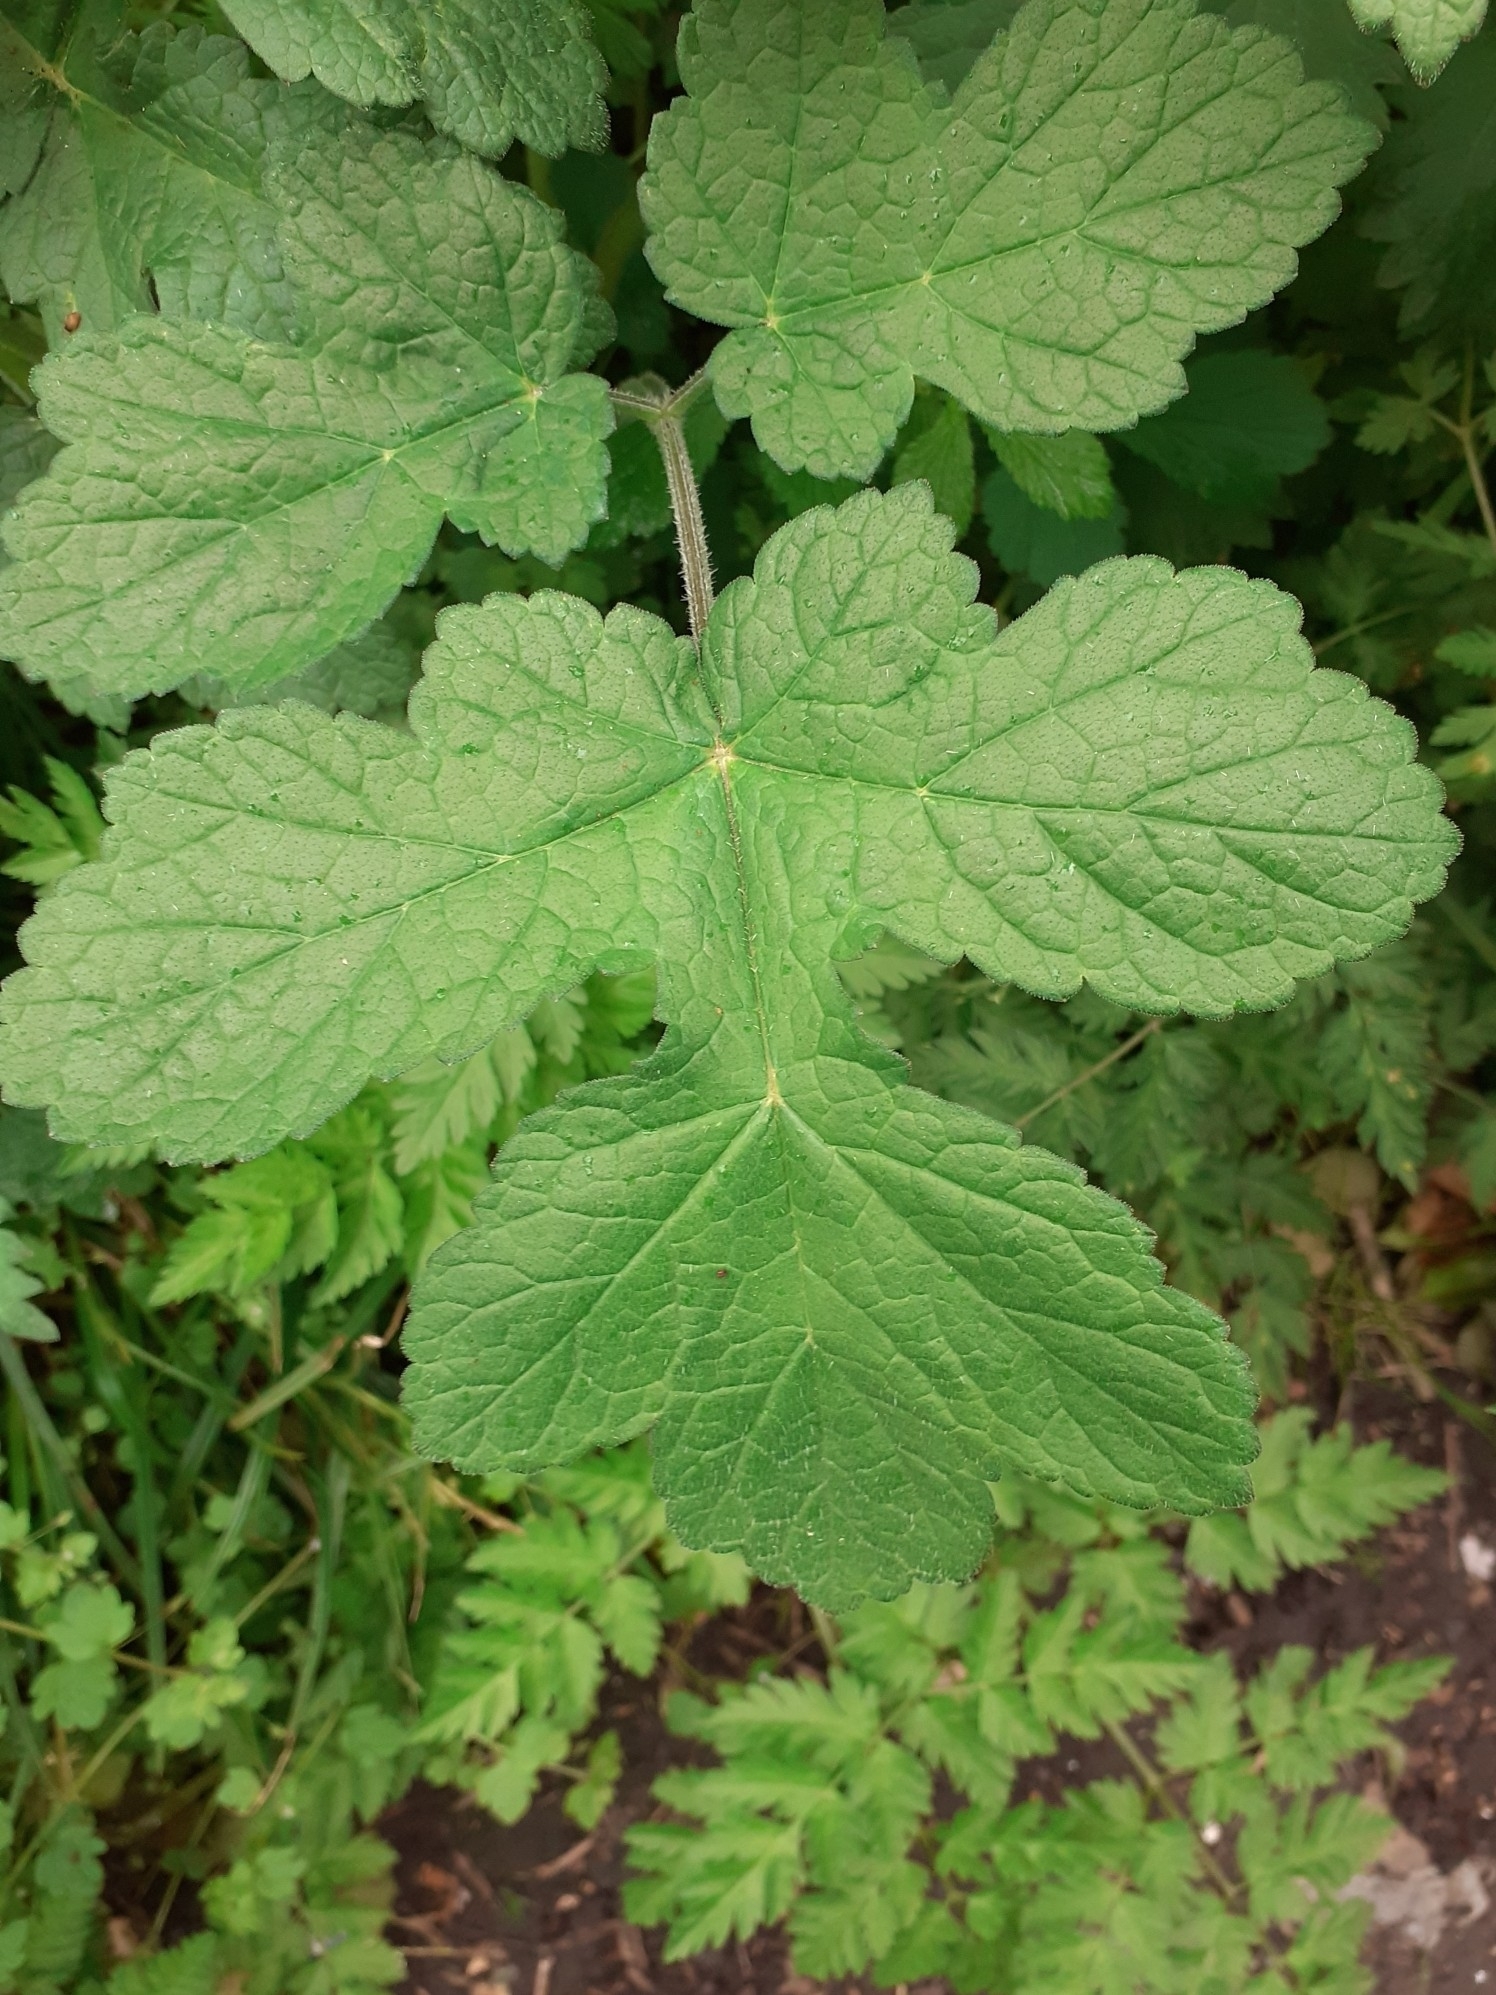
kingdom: Plantae
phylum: Tracheophyta
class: Magnoliopsida
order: Apiales
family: Apiaceae
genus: Heracleum
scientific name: Heracleum sphondylium
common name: Hogweed
